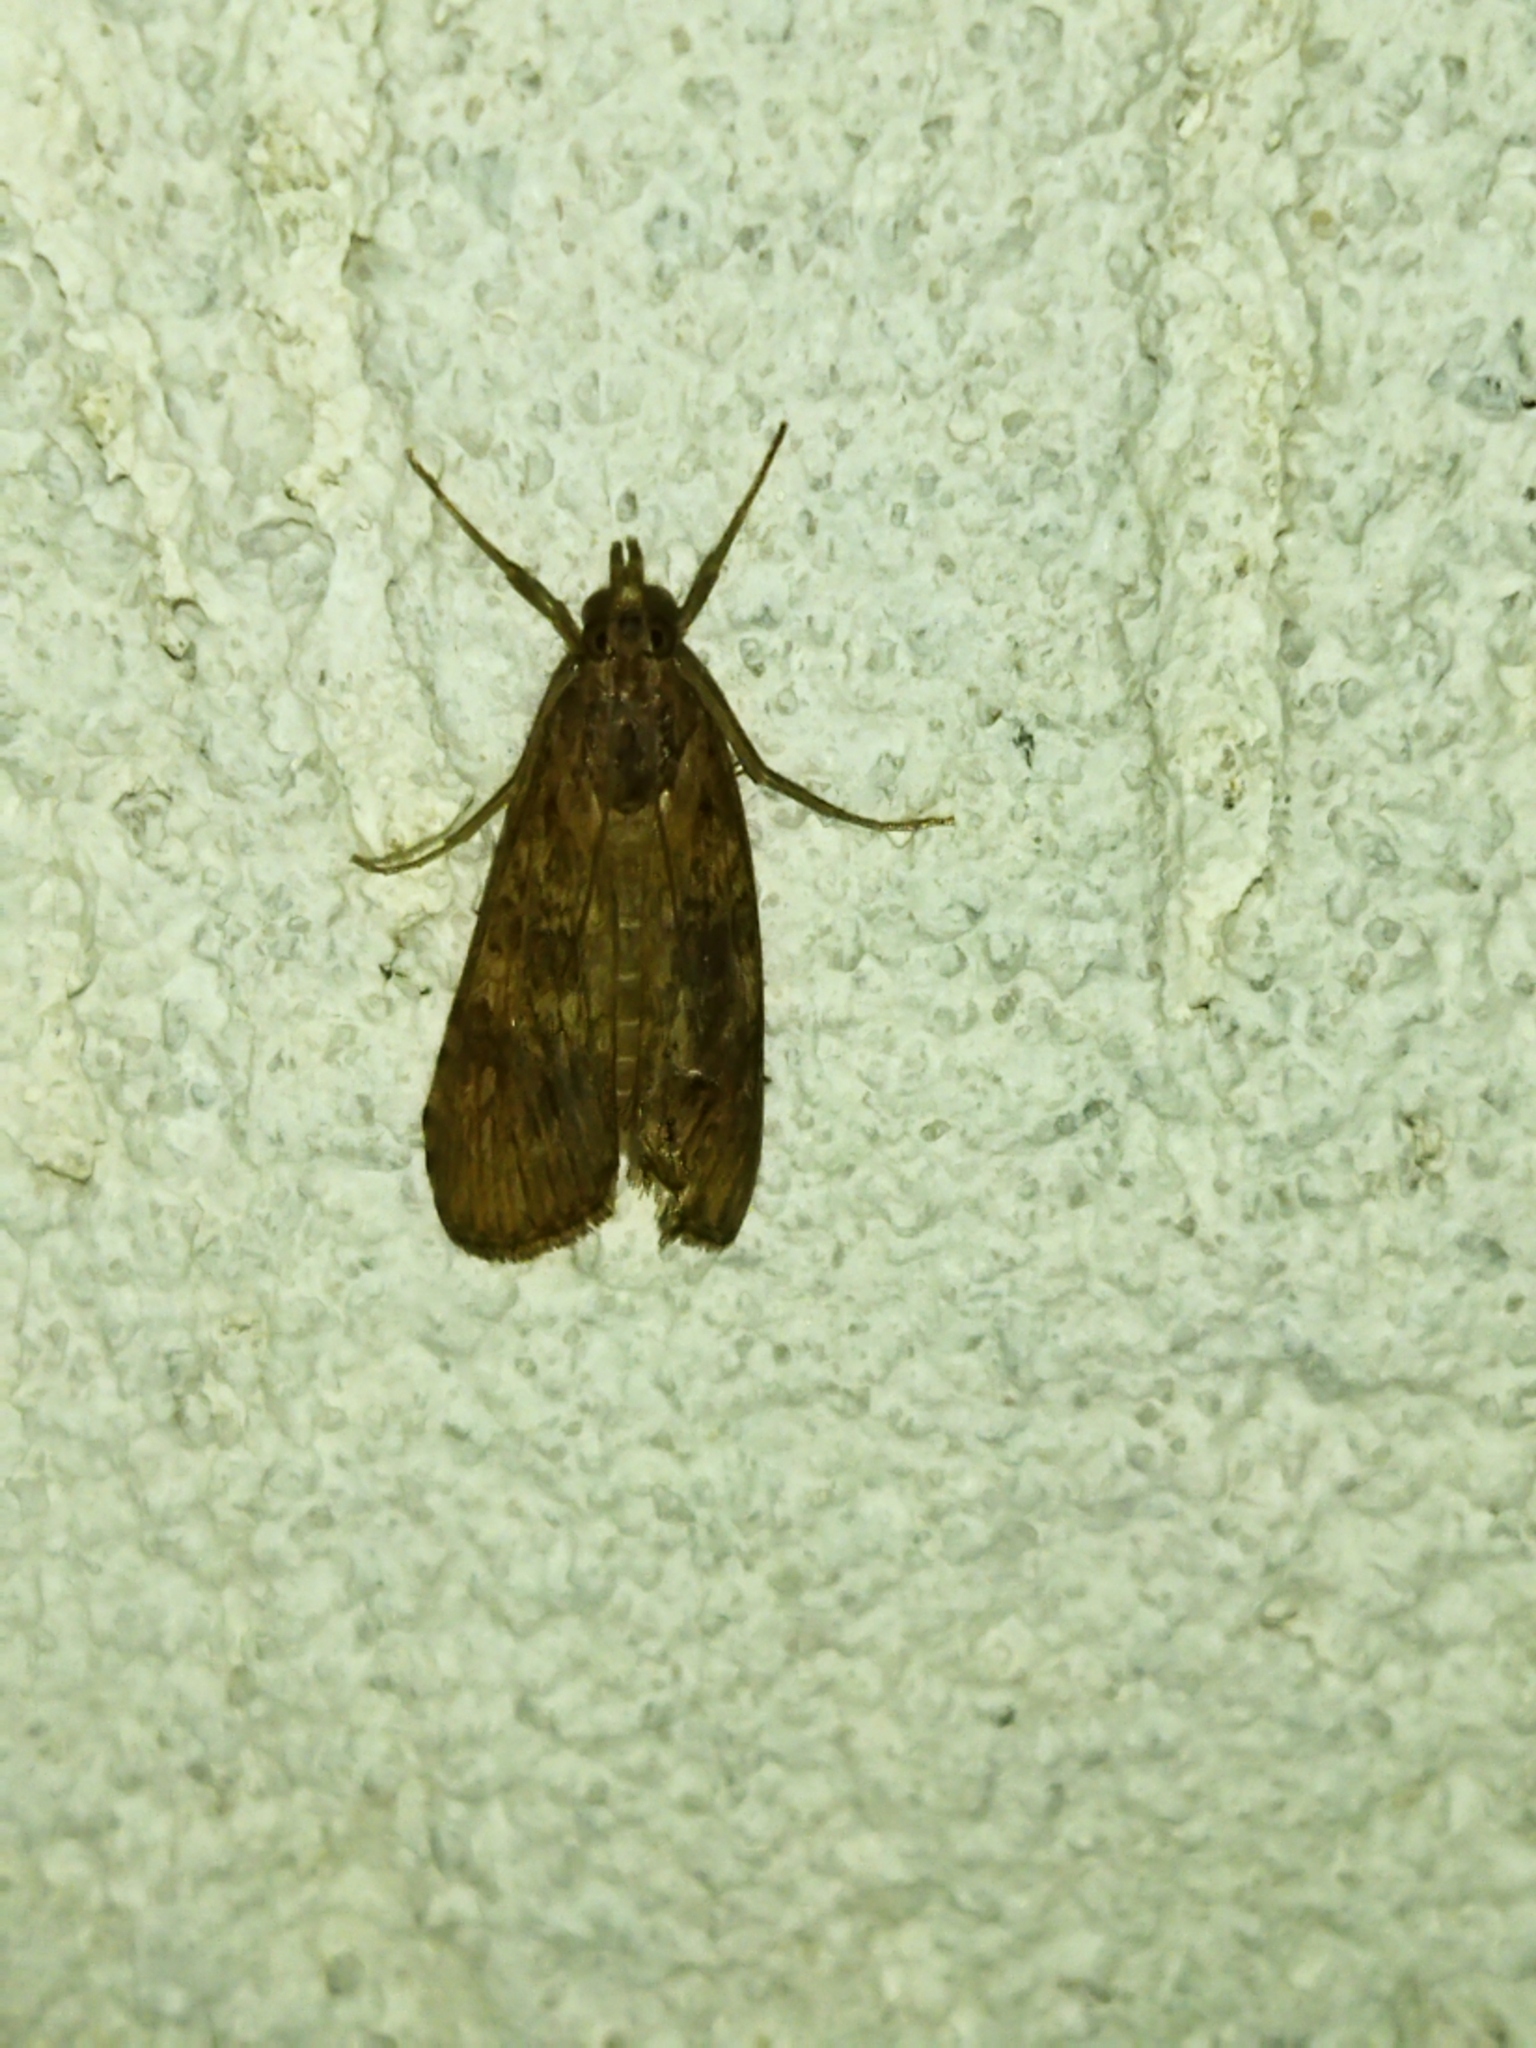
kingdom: Animalia
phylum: Arthropoda
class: Insecta
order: Lepidoptera
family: Crambidae
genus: Nomophila
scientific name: Nomophila noctuella
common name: Rush veneer
